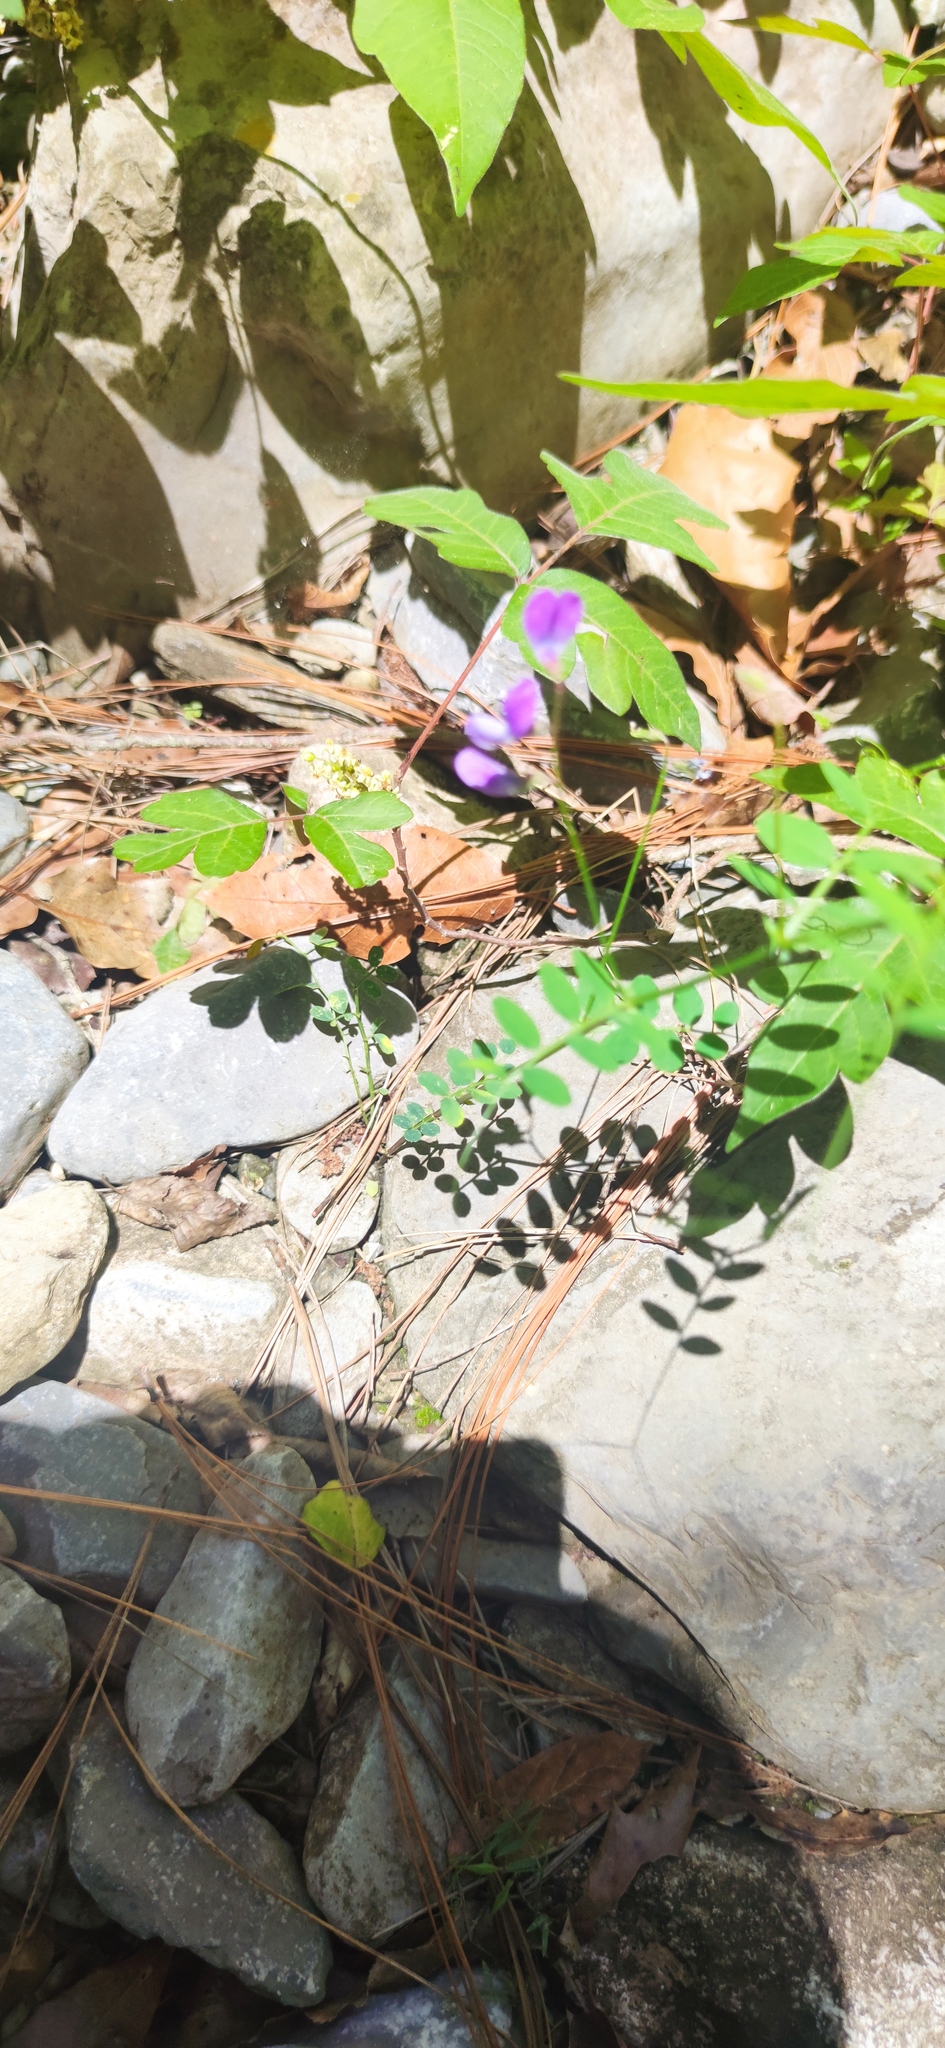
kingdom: Plantae
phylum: Tracheophyta
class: Magnoliopsida
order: Fabales
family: Fabaceae
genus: Vicia
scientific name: Vicia ludoviciana
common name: Louisiana vetch
